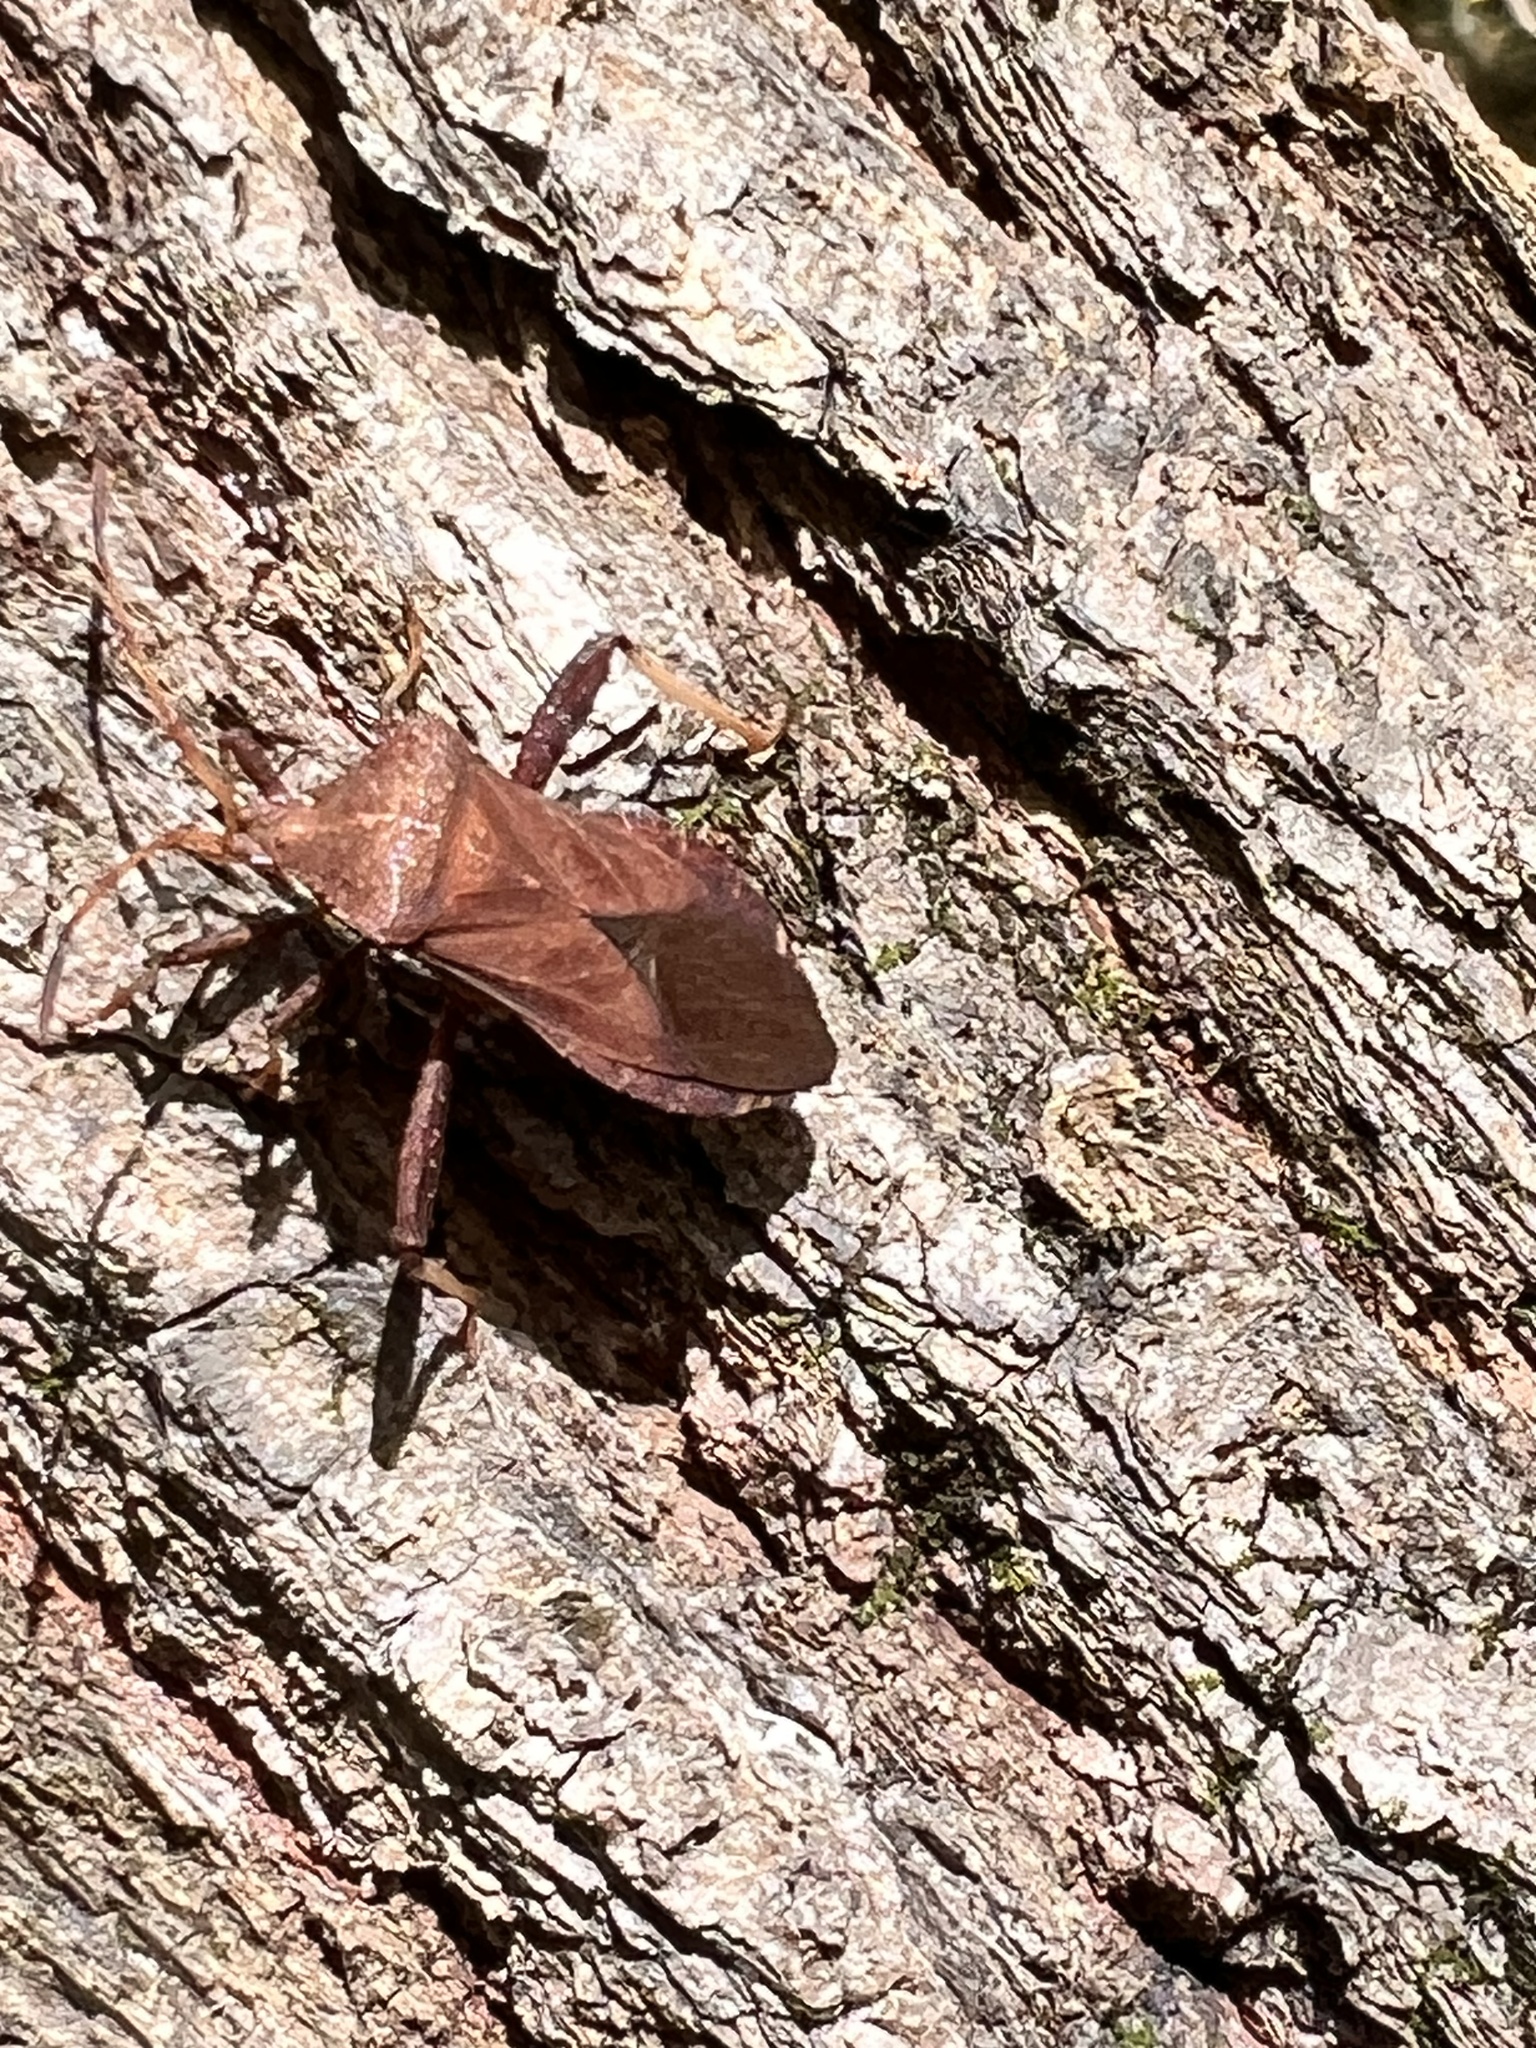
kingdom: Animalia
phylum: Arthropoda
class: Insecta
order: Hemiptera
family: Coreidae
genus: Euthochtha
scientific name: Euthochtha galeator
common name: Helmeted squash bug
